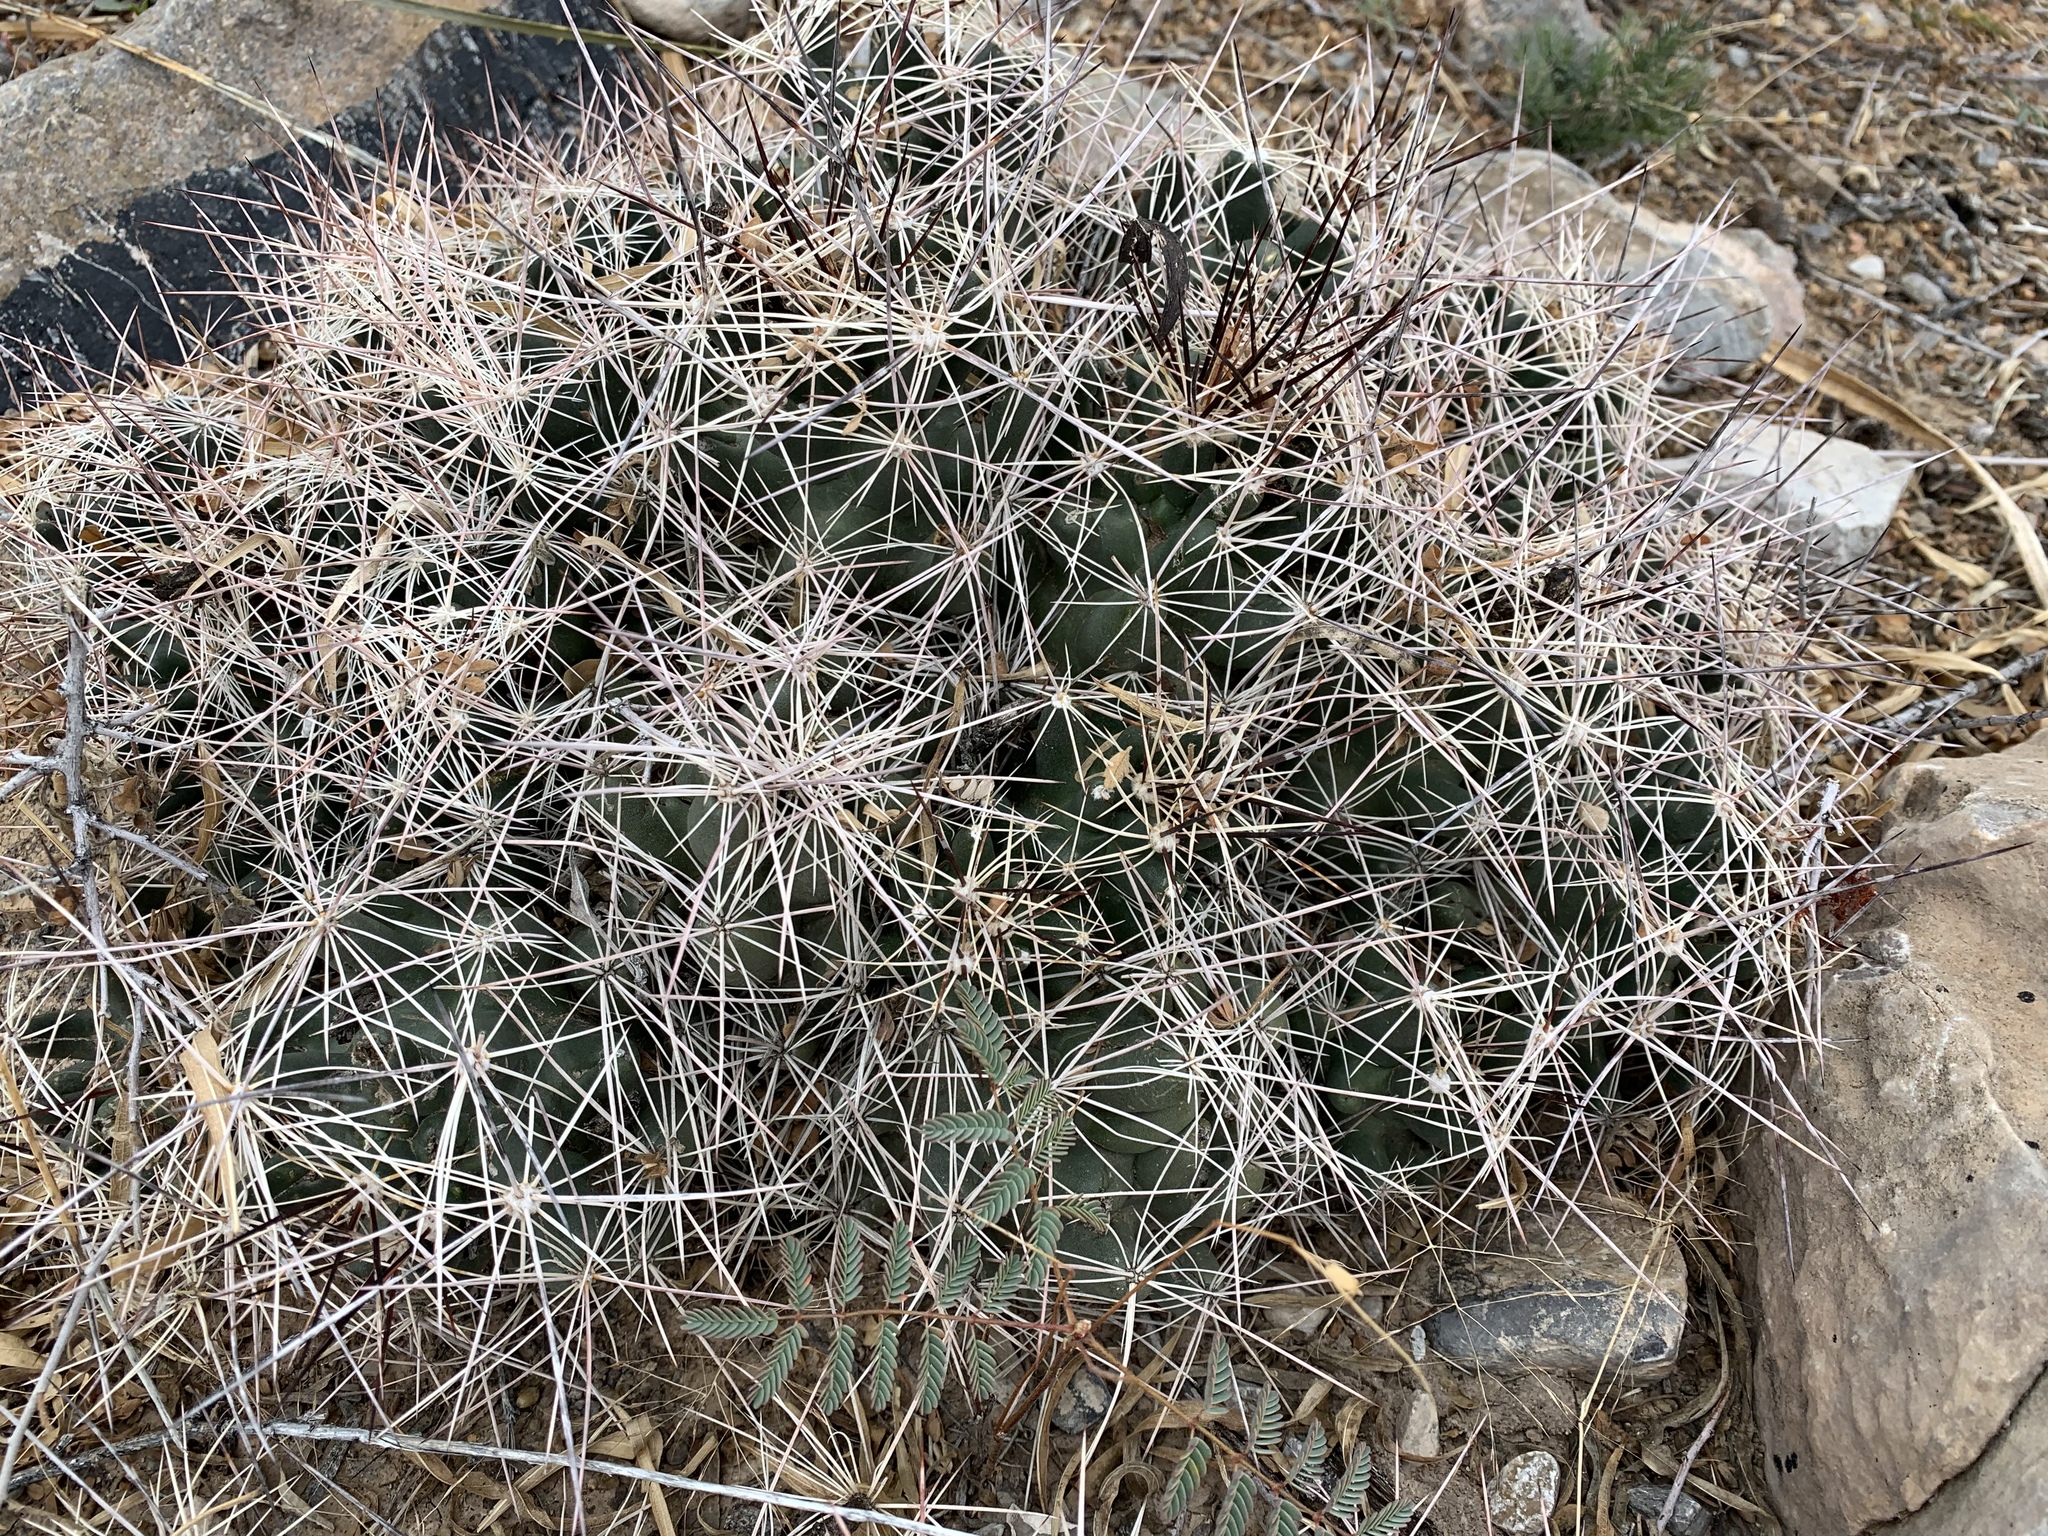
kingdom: Plantae
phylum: Tracheophyta
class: Magnoliopsida
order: Caryophyllales
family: Cactaceae
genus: Coryphantha
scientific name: Coryphantha macromeris
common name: Nipple beehive cactus
